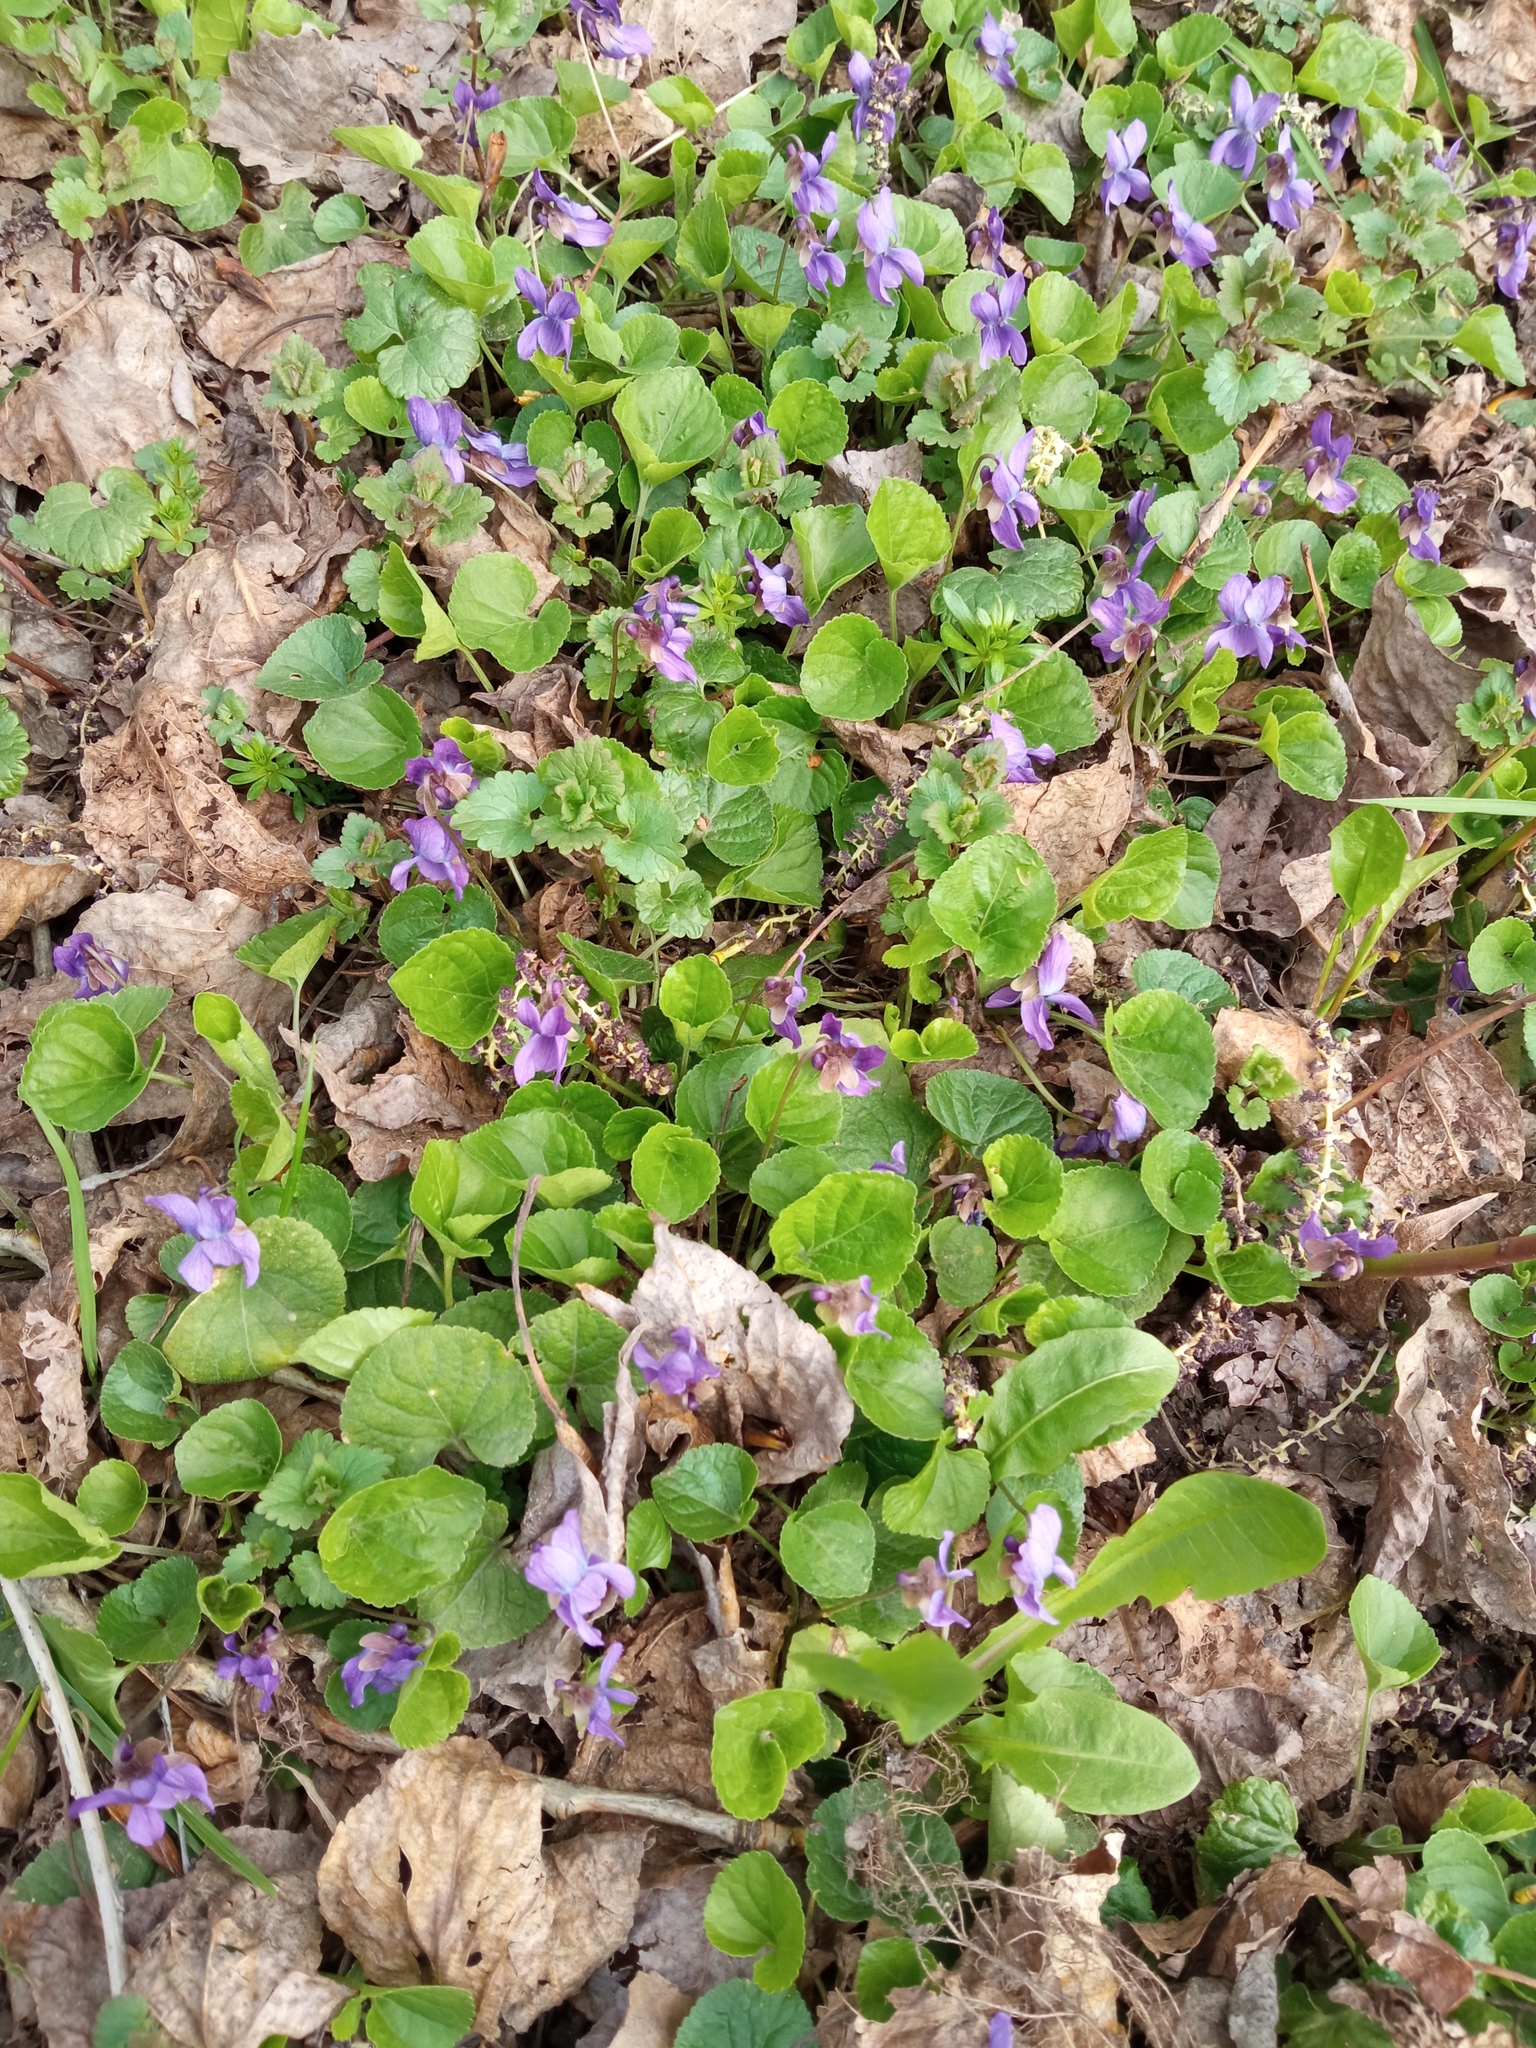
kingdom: Plantae
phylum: Tracheophyta
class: Magnoliopsida
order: Malpighiales
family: Violaceae
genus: Viola
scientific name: Viola odorata
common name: Sweet violet
